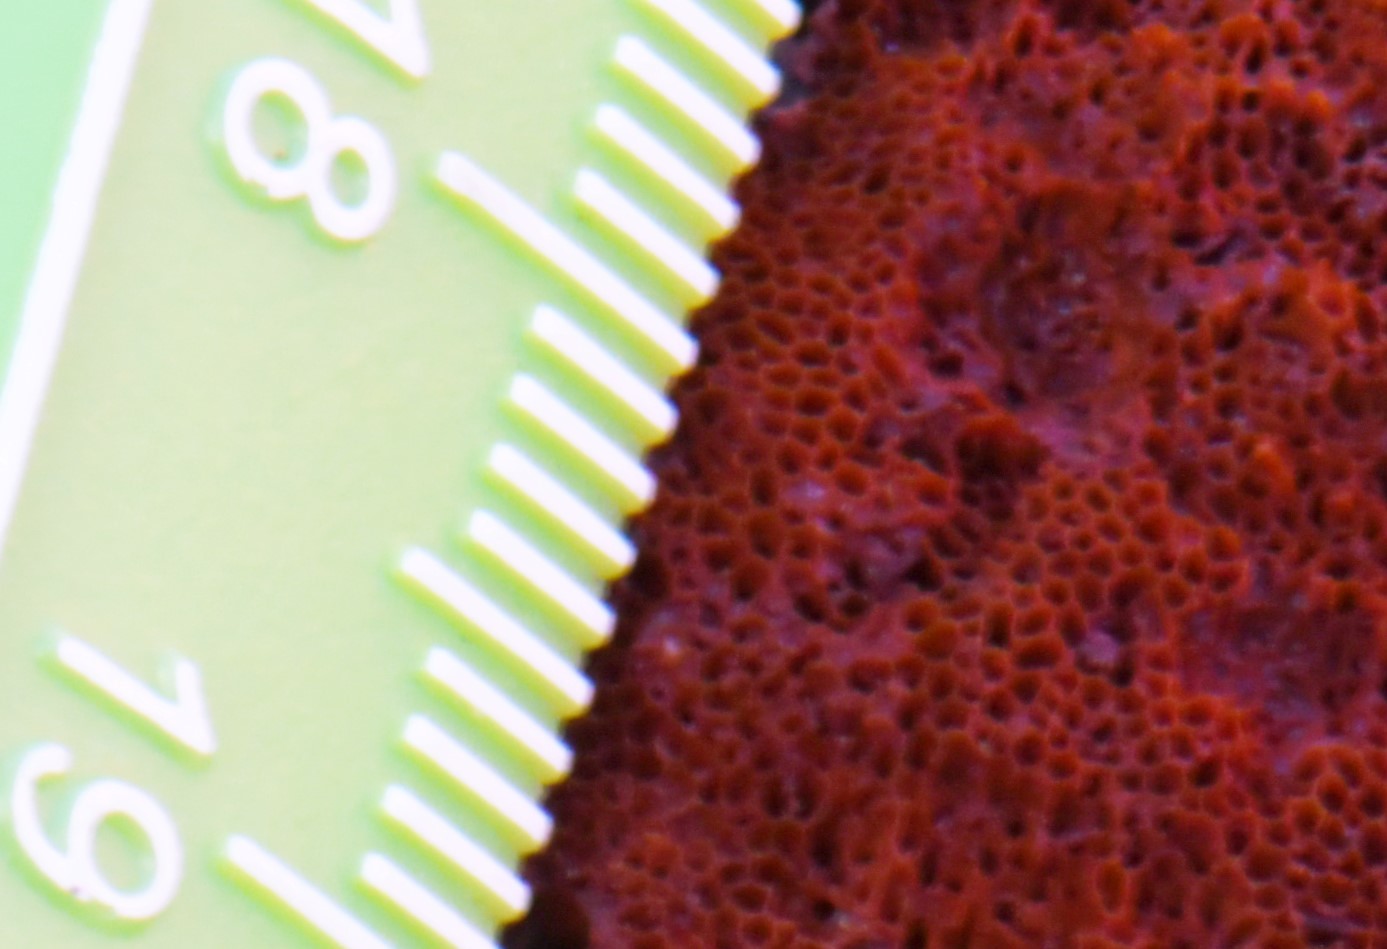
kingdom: Fungi
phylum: Basidiomycota
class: Agaricomycetes
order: Hymenochaetales
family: Hymenochaetaceae
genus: Coltriciella
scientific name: Coltriciella dependens
